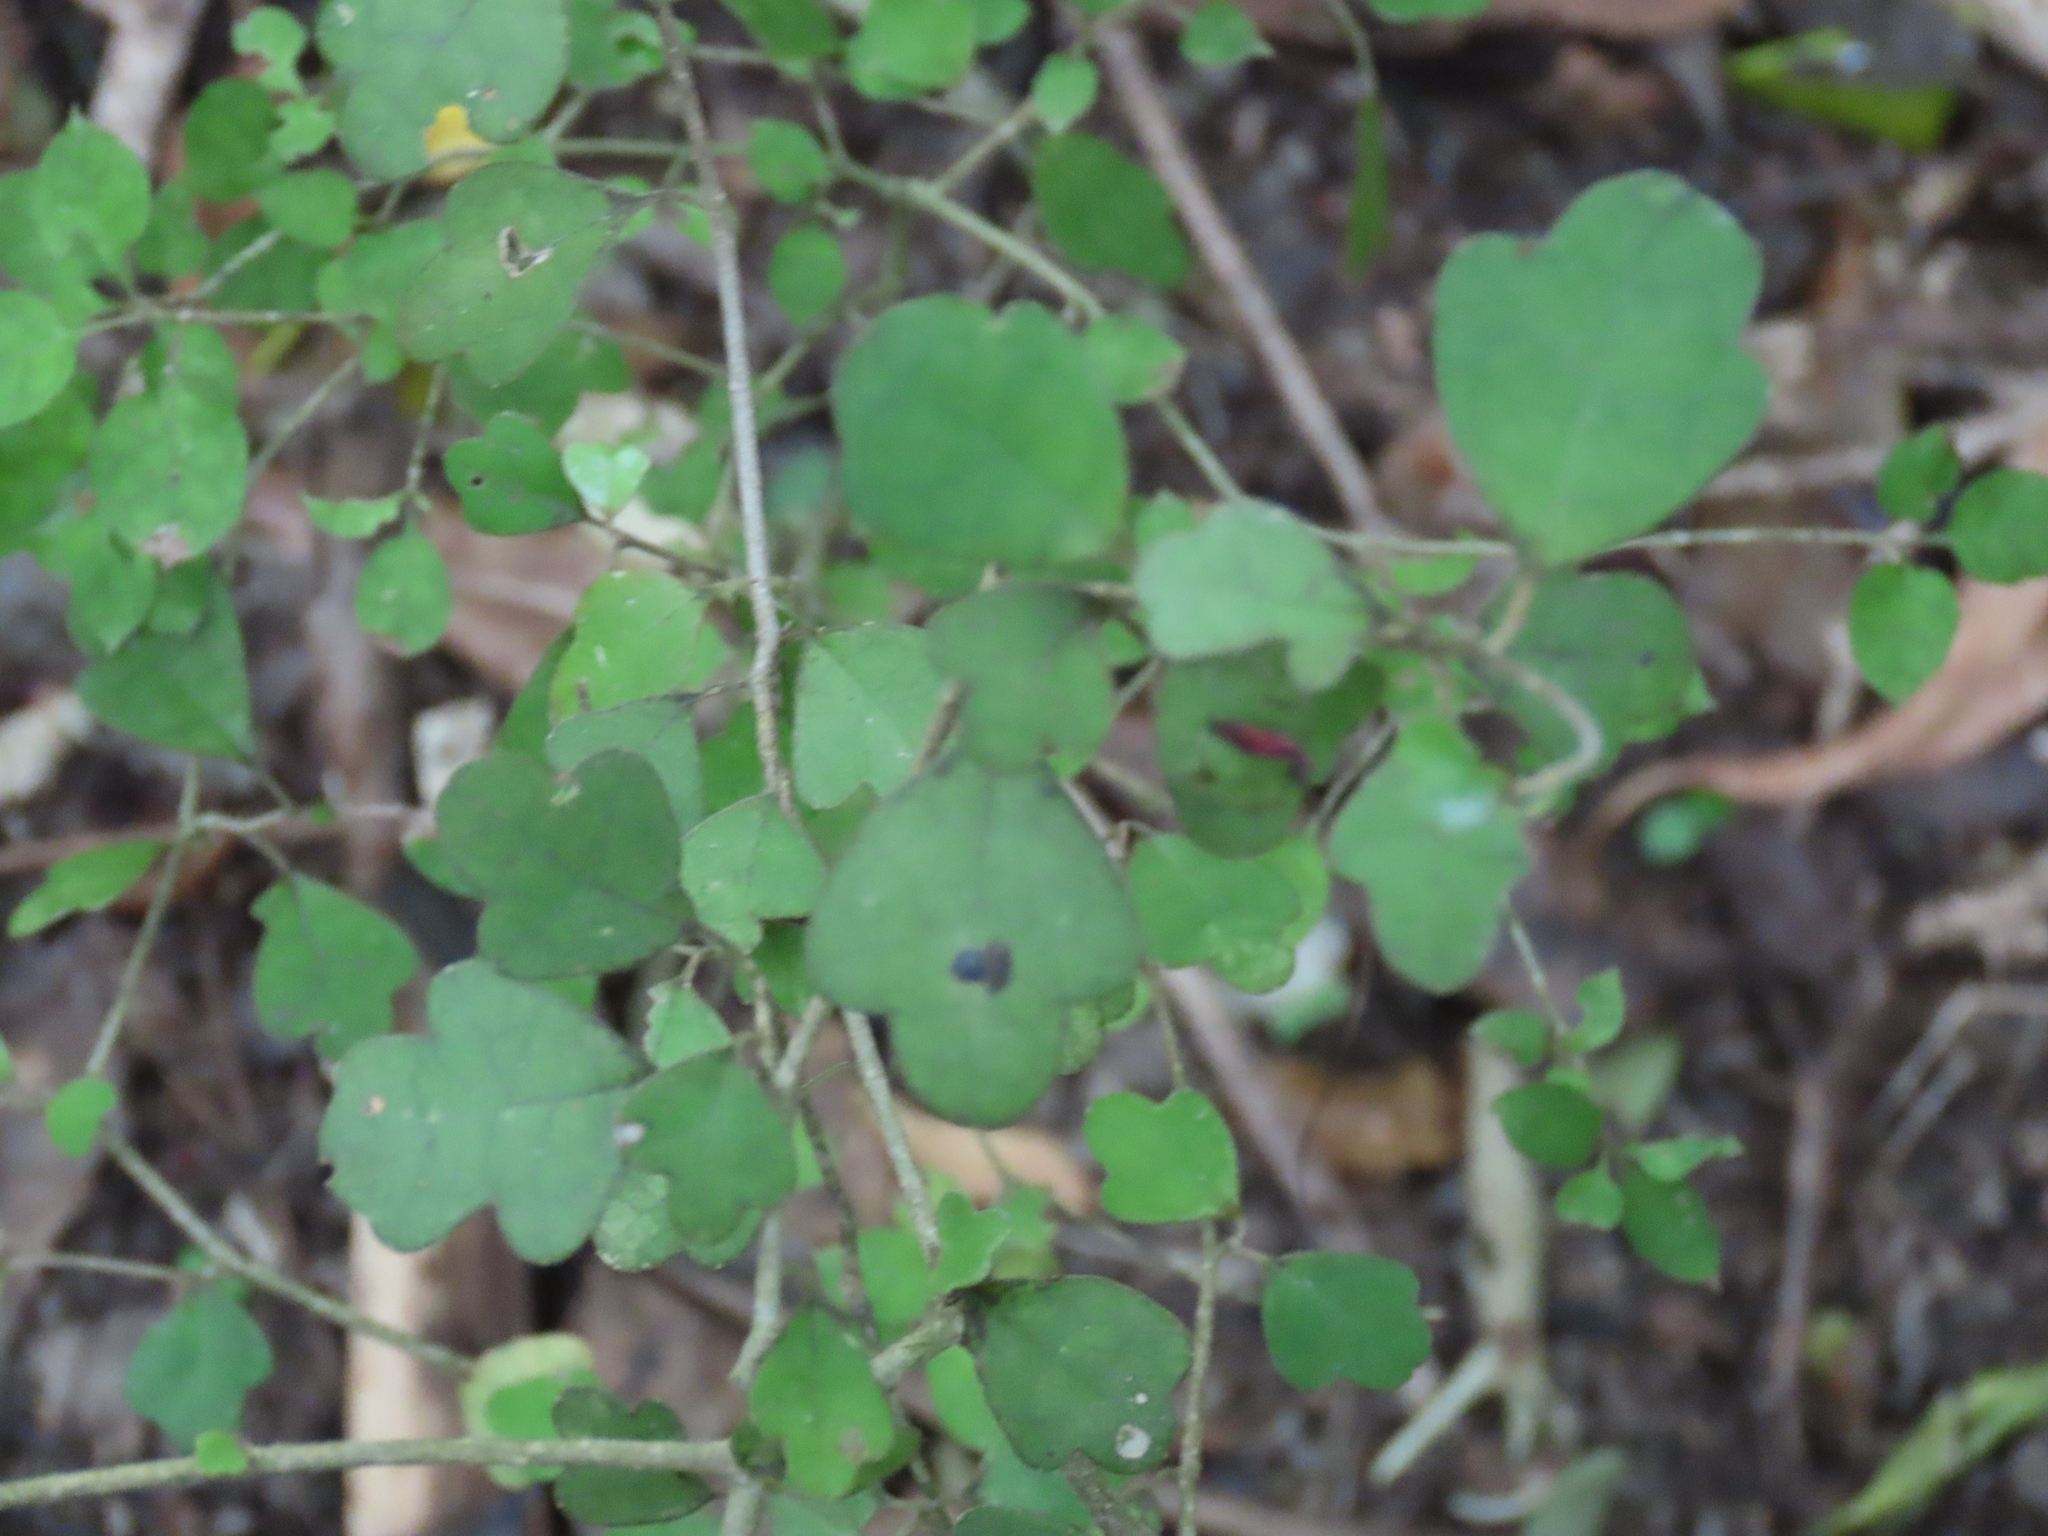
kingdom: Plantae
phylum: Tracheophyta
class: Magnoliopsida
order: Apiales
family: Pennantiaceae
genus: Pennantia
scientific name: Pennantia corymbosa
